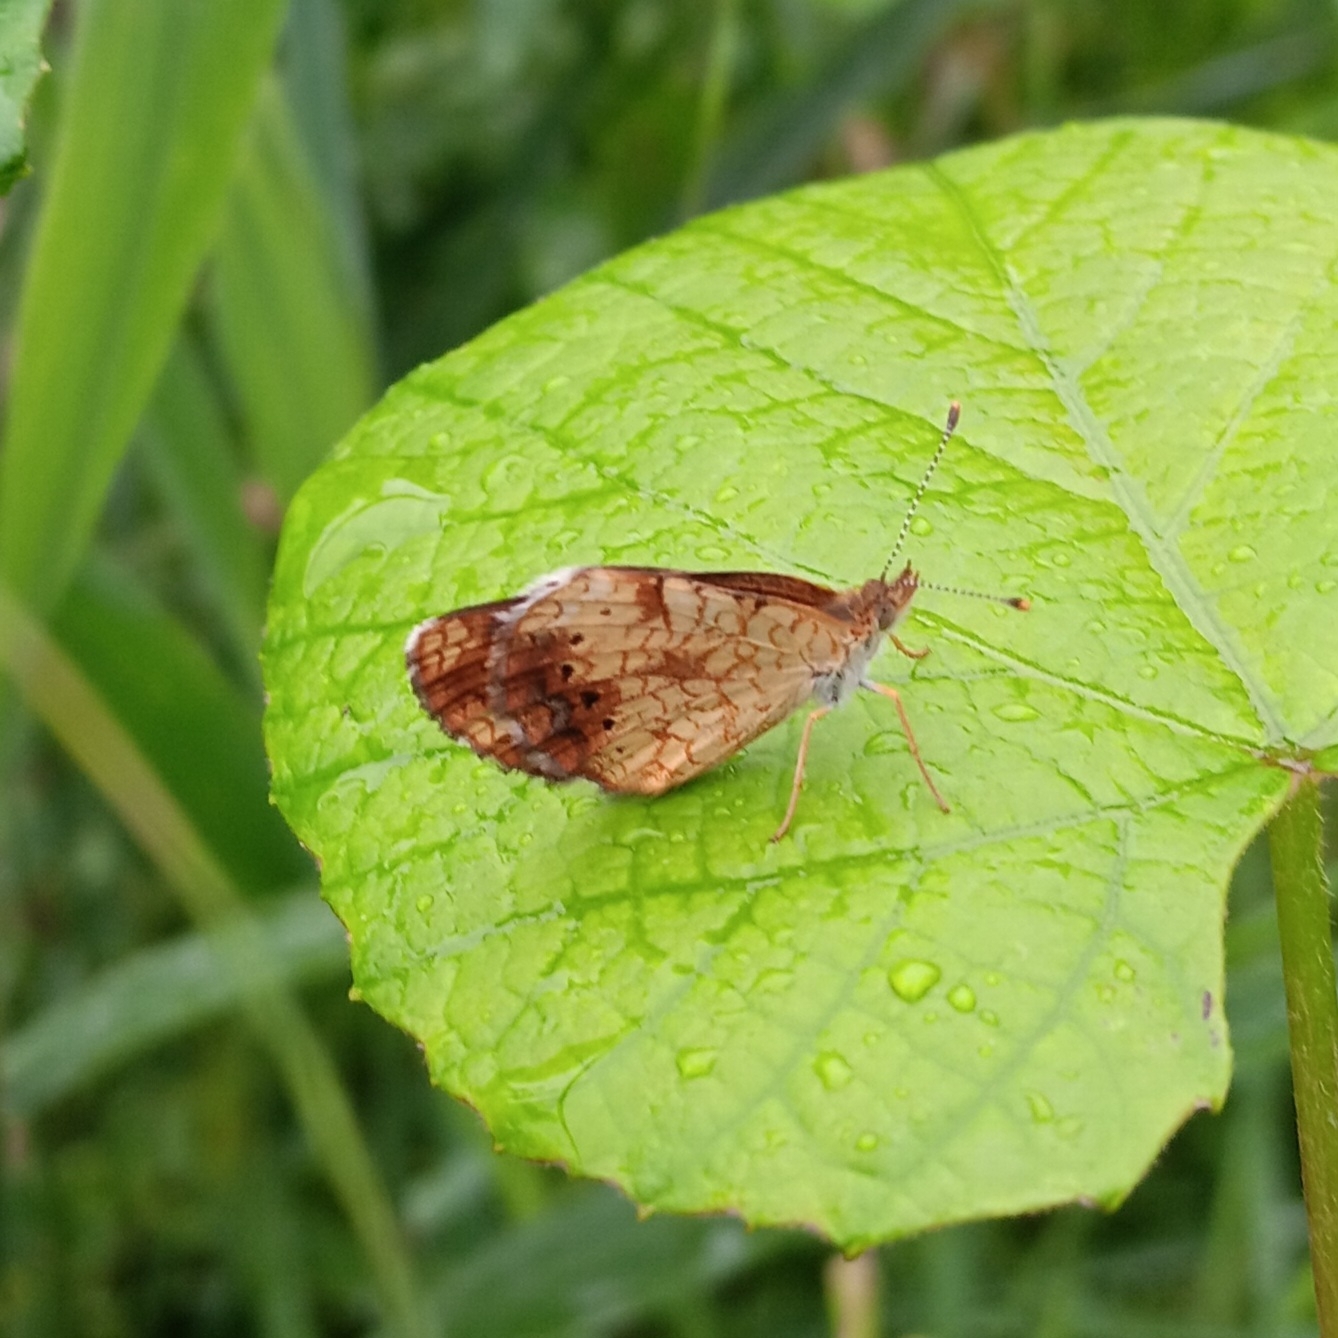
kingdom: Animalia
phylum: Arthropoda
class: Insecta
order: Lepidoptera
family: Nymphalidae
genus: Phyciodes
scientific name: Phyciodes tharos
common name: Pearl crescent
